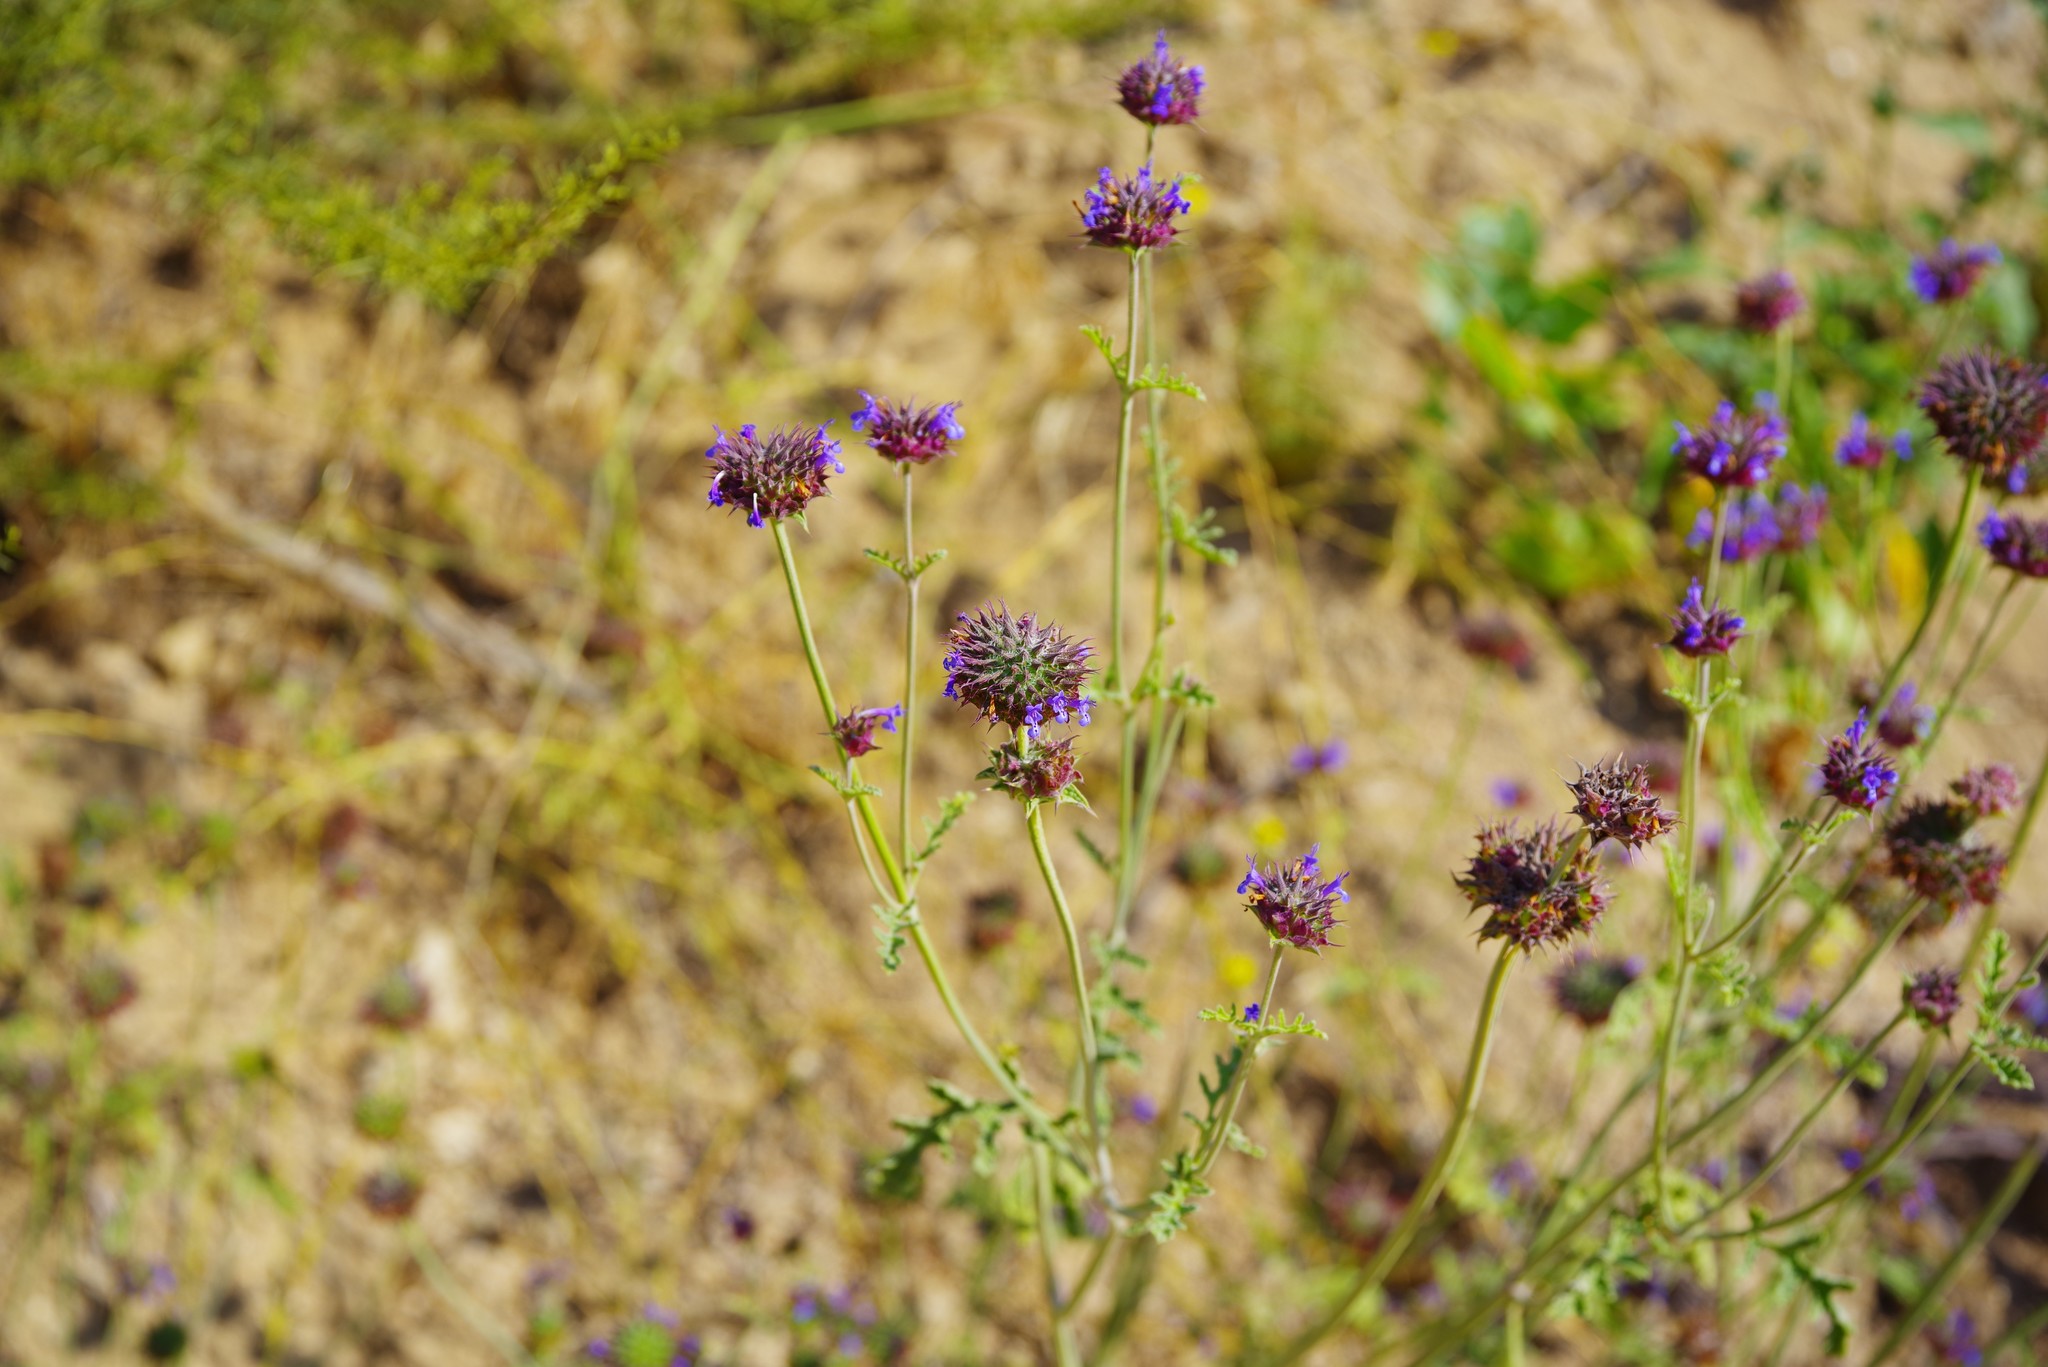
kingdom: Plantae
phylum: Tracheophyta
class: Magnoliopsida
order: Lamiales
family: Lamiaceae
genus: Salvia
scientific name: Salvia columbariae
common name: Chia
